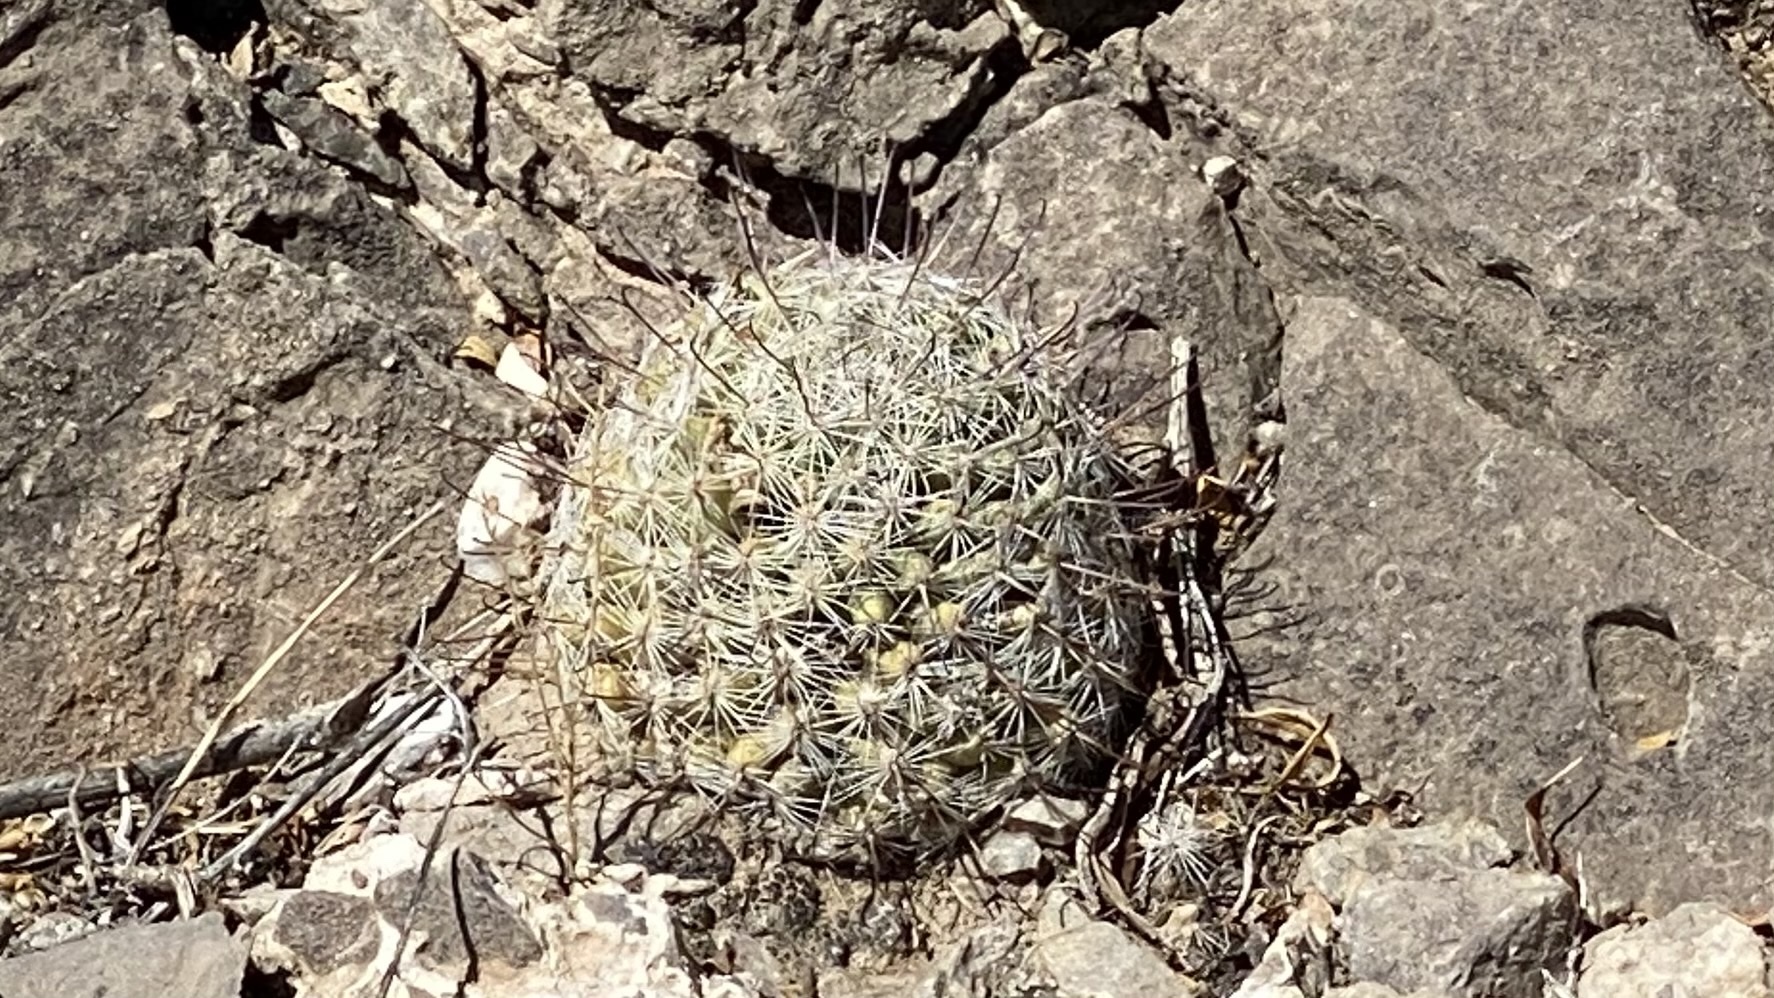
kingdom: Plantae
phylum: Tracheophyta
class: Magnoliopsida
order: Caryophyllales
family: Cactaceae
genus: Cochemiea
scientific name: Cochemiea grahamii
